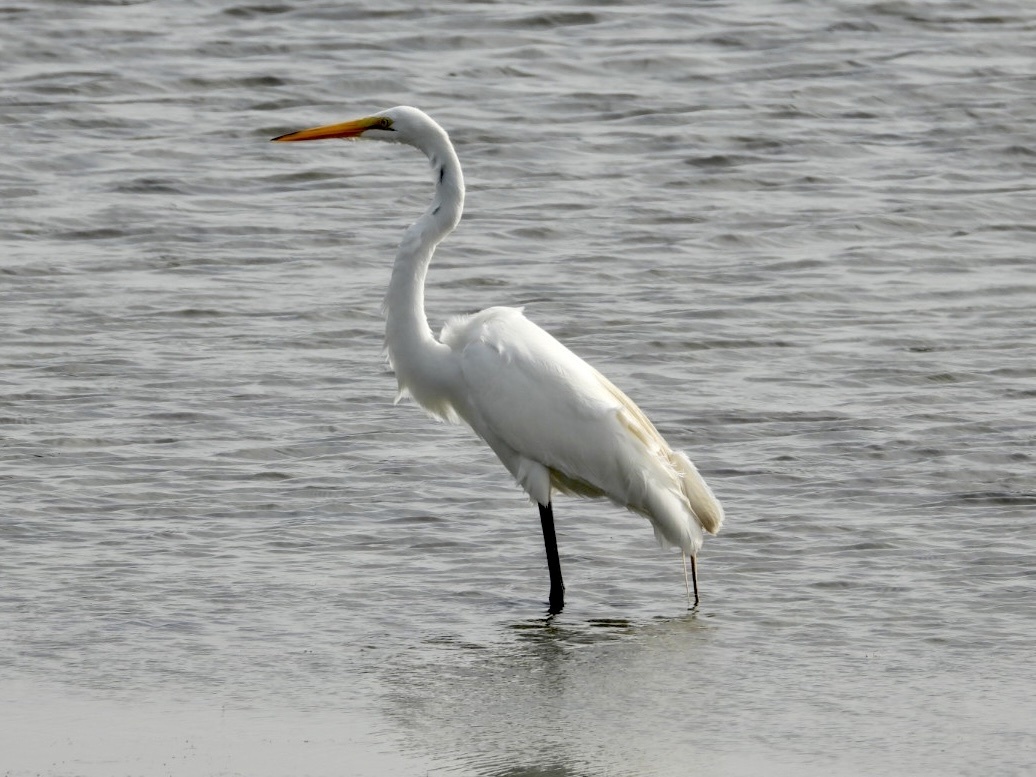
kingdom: Animalia
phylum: Chordata
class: Aves
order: Pelecaniformes
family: Ardeidae
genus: Ardea
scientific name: Ardea alba
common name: Great egret
